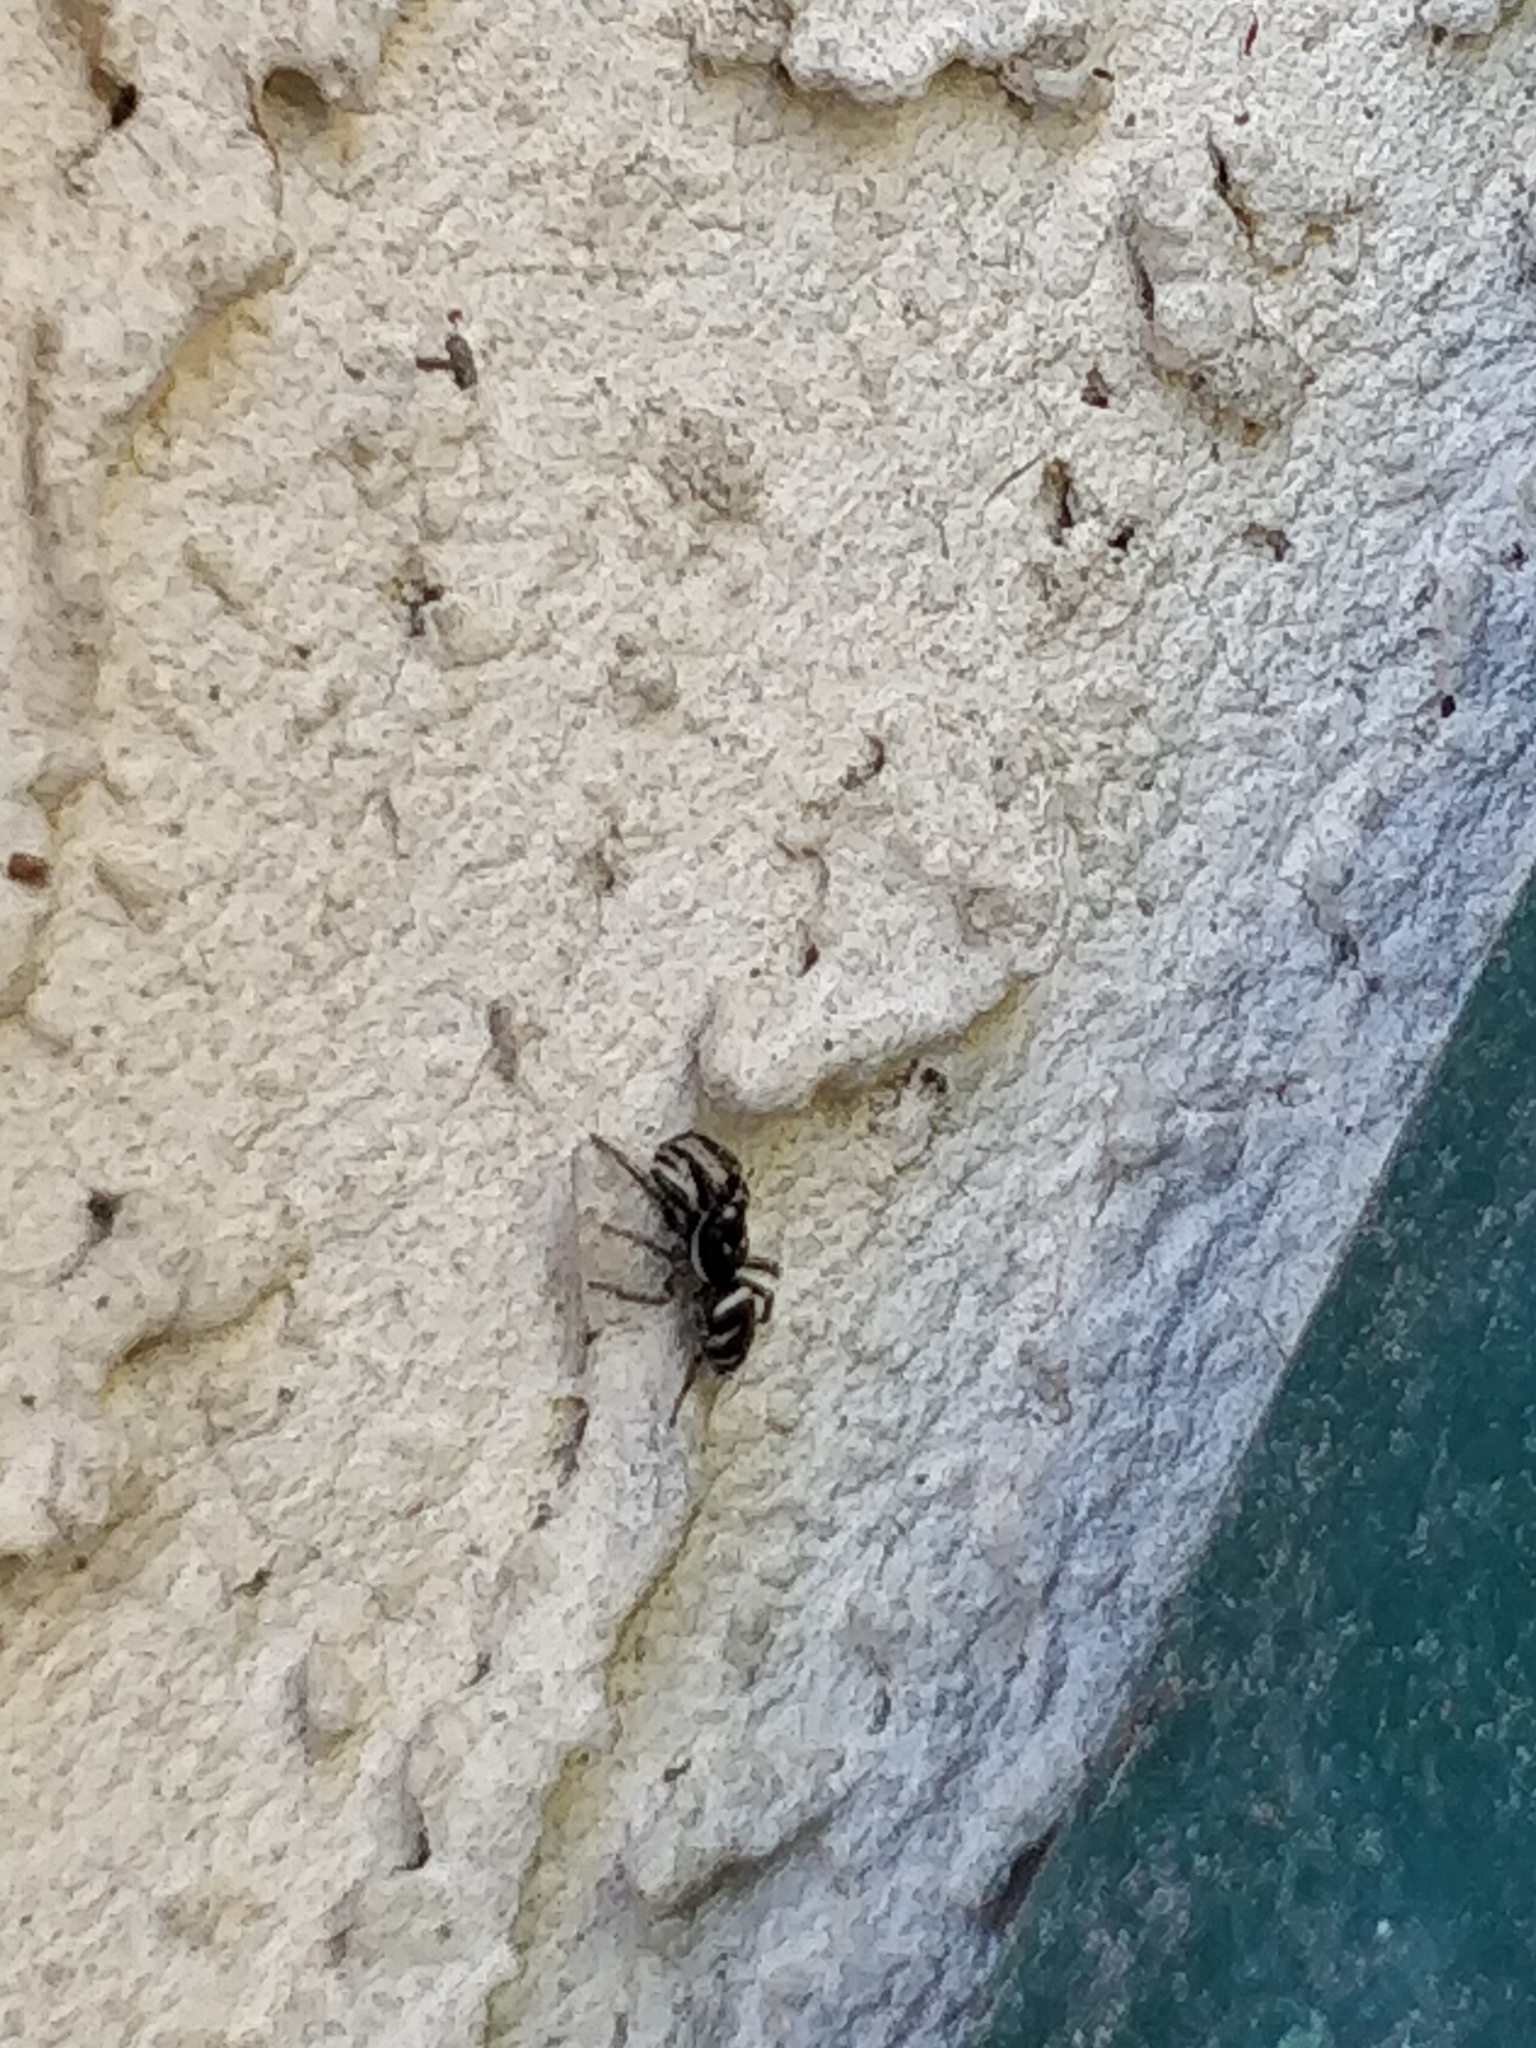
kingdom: Animalia
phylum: Arthropoda
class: Arachnida
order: Araneae
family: Salticidae
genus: Salticus
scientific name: Salticus scenicus
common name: Zebra jumper
